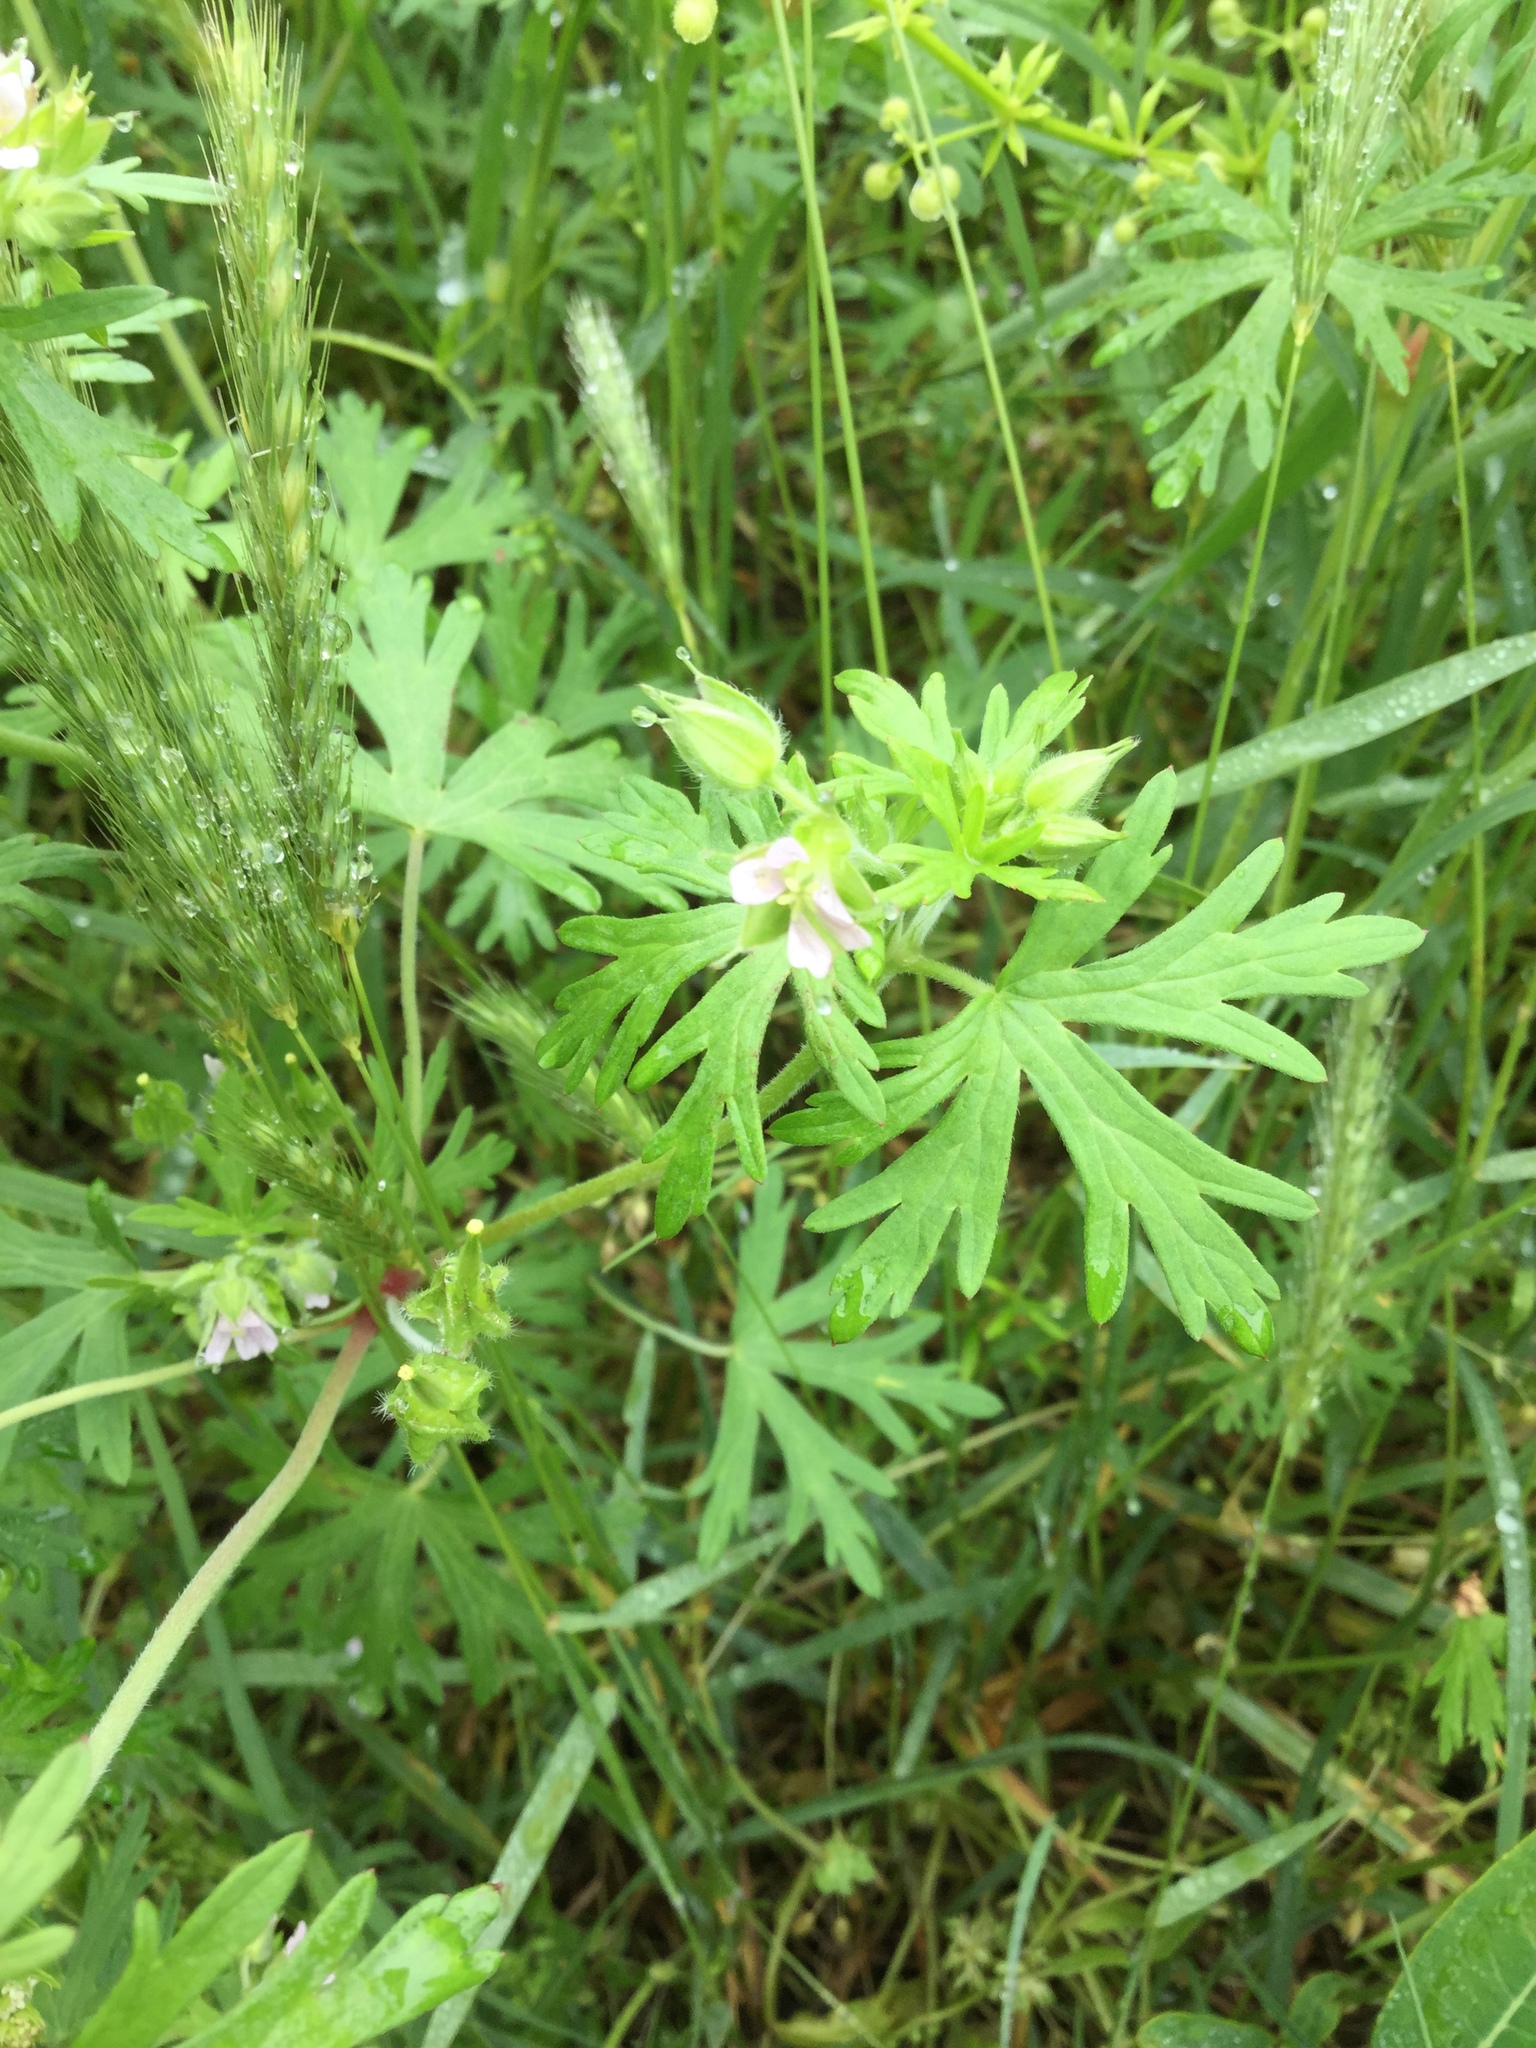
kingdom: Plantae
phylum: Tracheophyta
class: Magnoliopsida
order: Geraniales
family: Geraniaceae
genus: Geranium
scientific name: Geranium carolinianum
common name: Carolina crane's-bill
